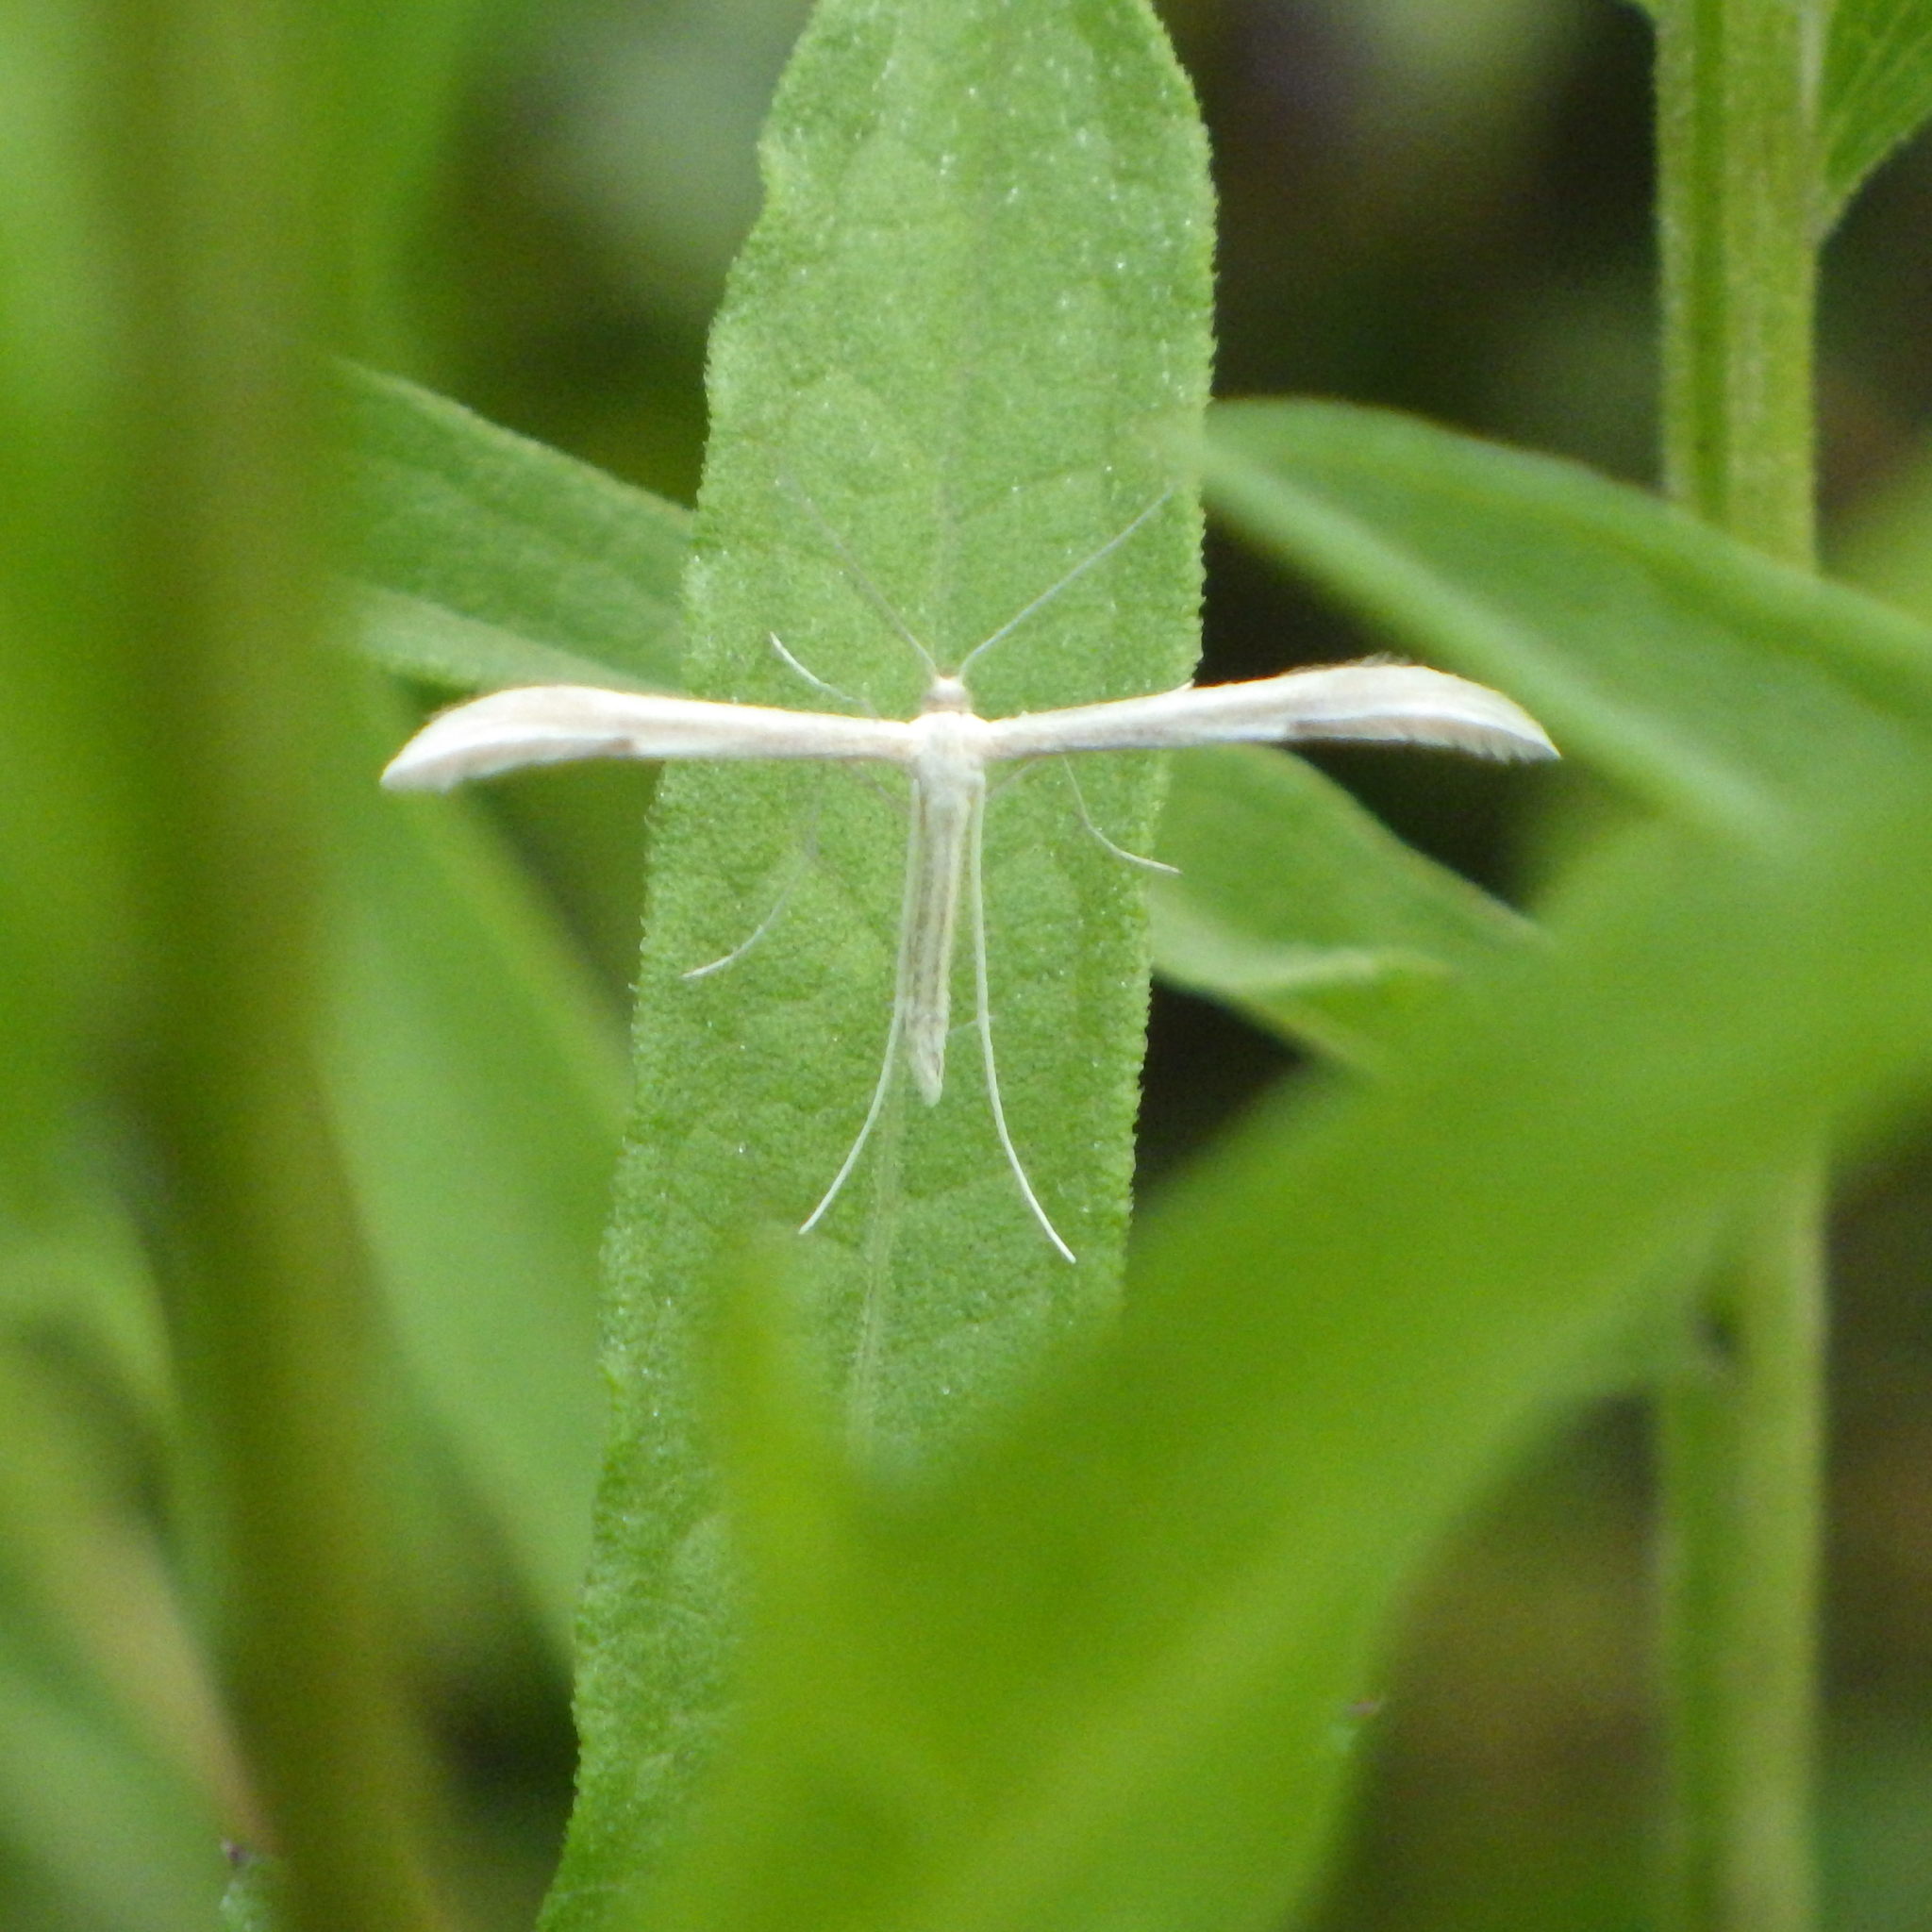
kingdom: Animalia
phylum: Arthropoda
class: Insecta
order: Lepidoptera
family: Pterophoridae
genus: Hellinsia
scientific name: Hellinsia homodactylus
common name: Plain plume moth
